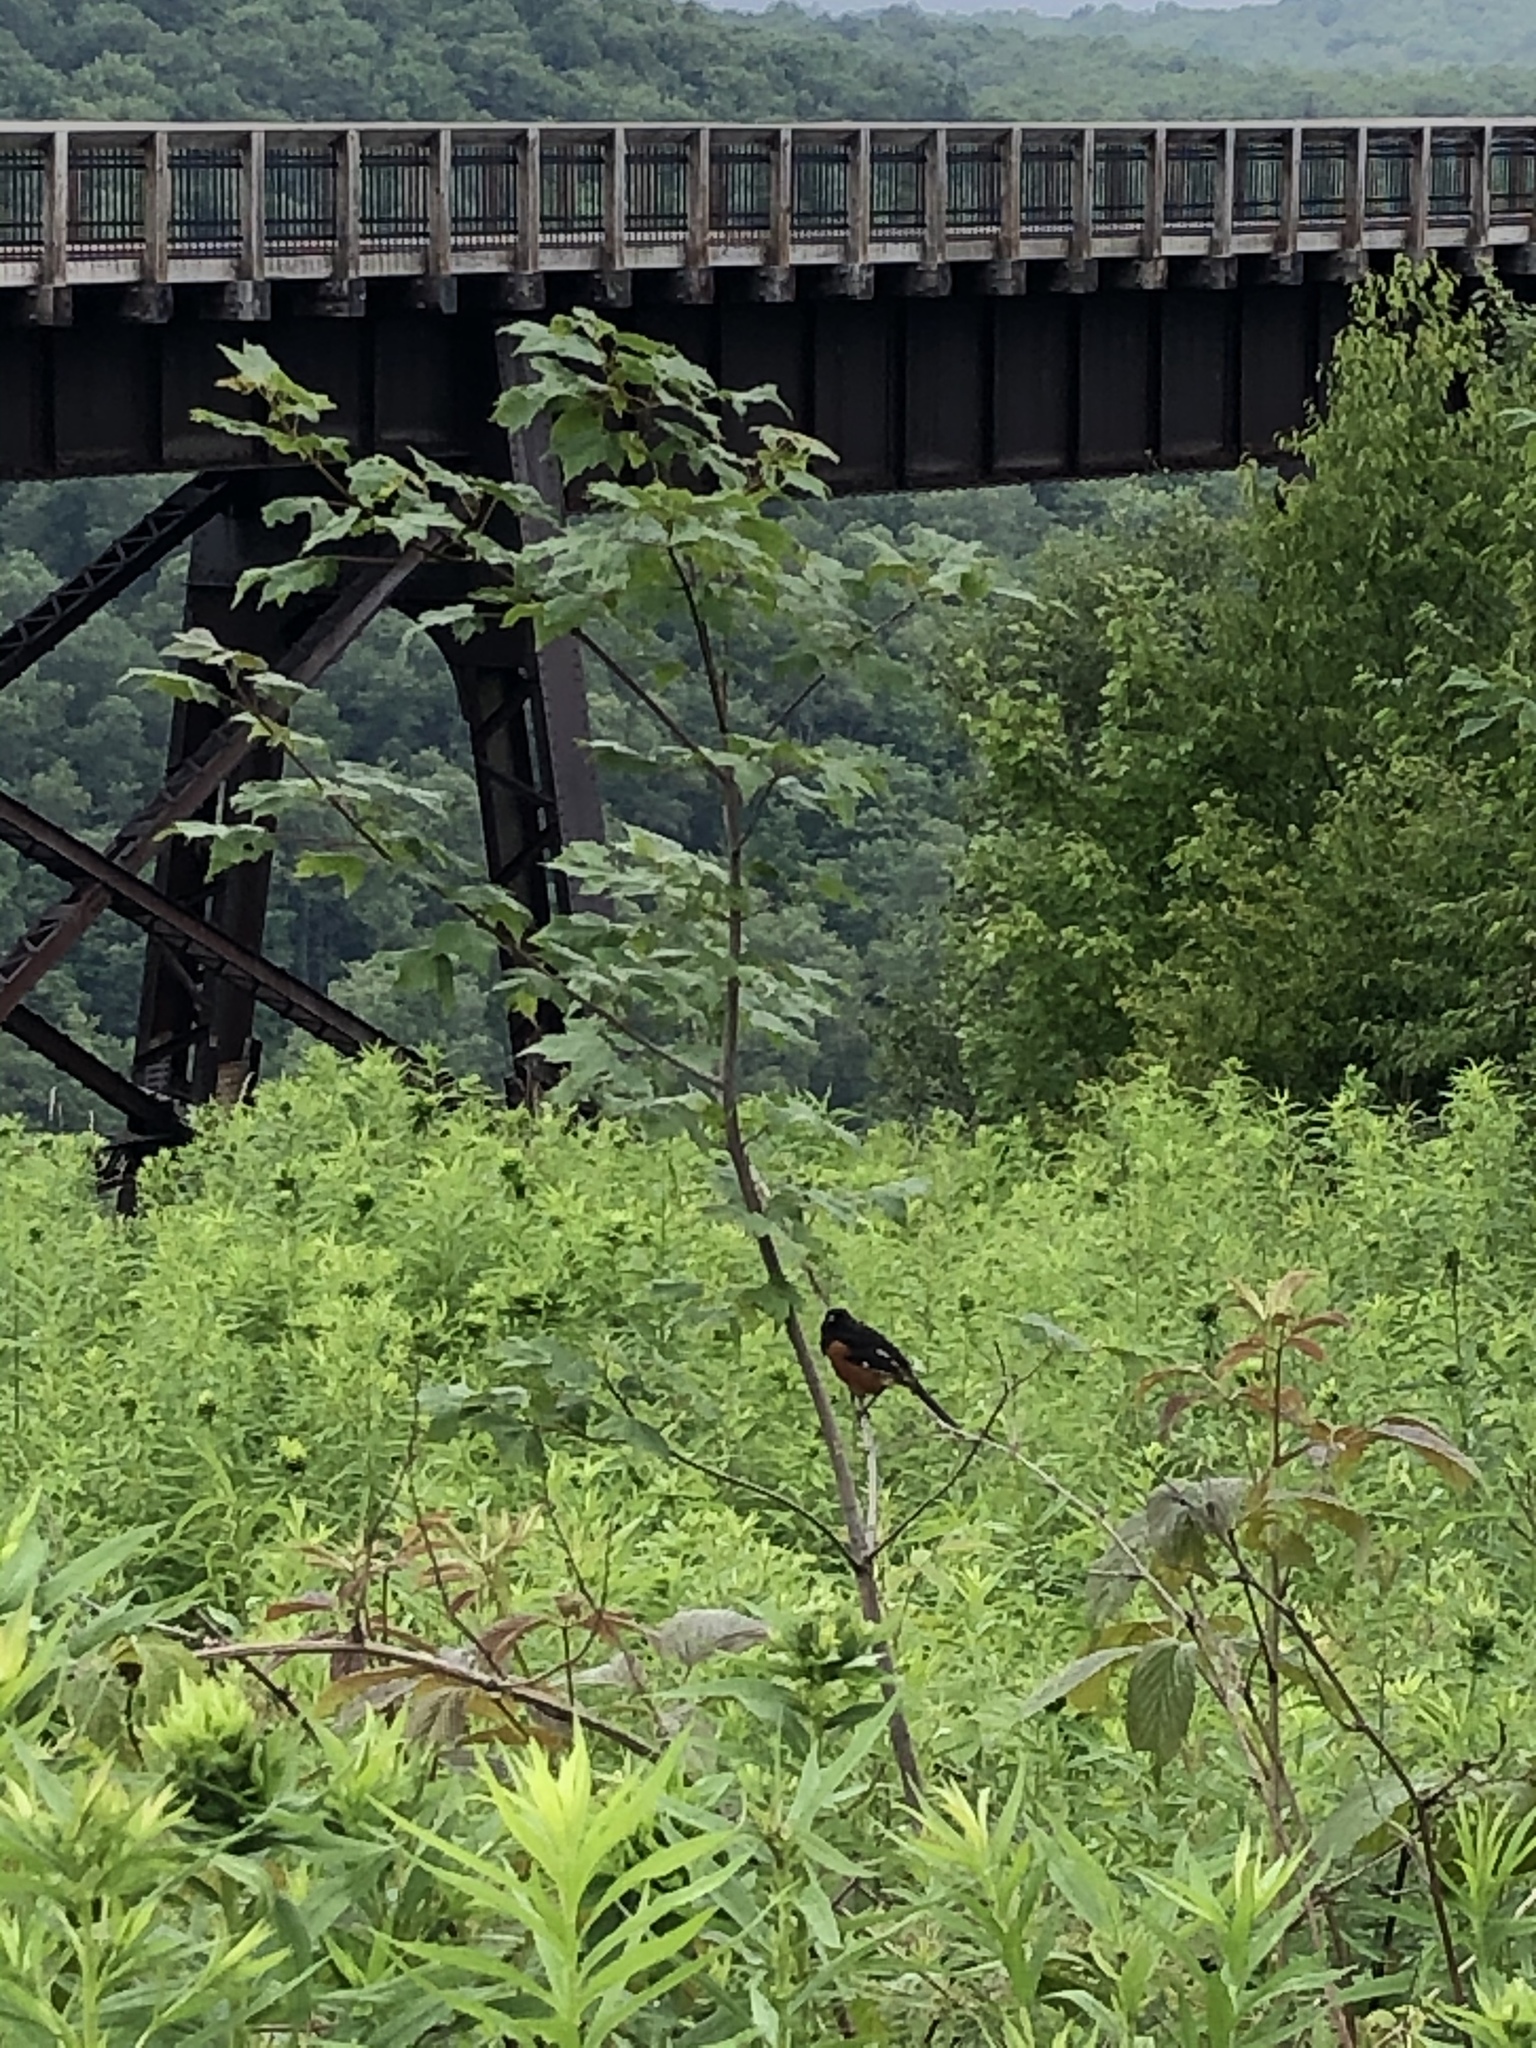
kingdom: Animalia
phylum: Chordata
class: Aves
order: Passeriformes
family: Passerellidae
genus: Pipilo
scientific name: Pipilo erythrophthalmus
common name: Eastern towhee
